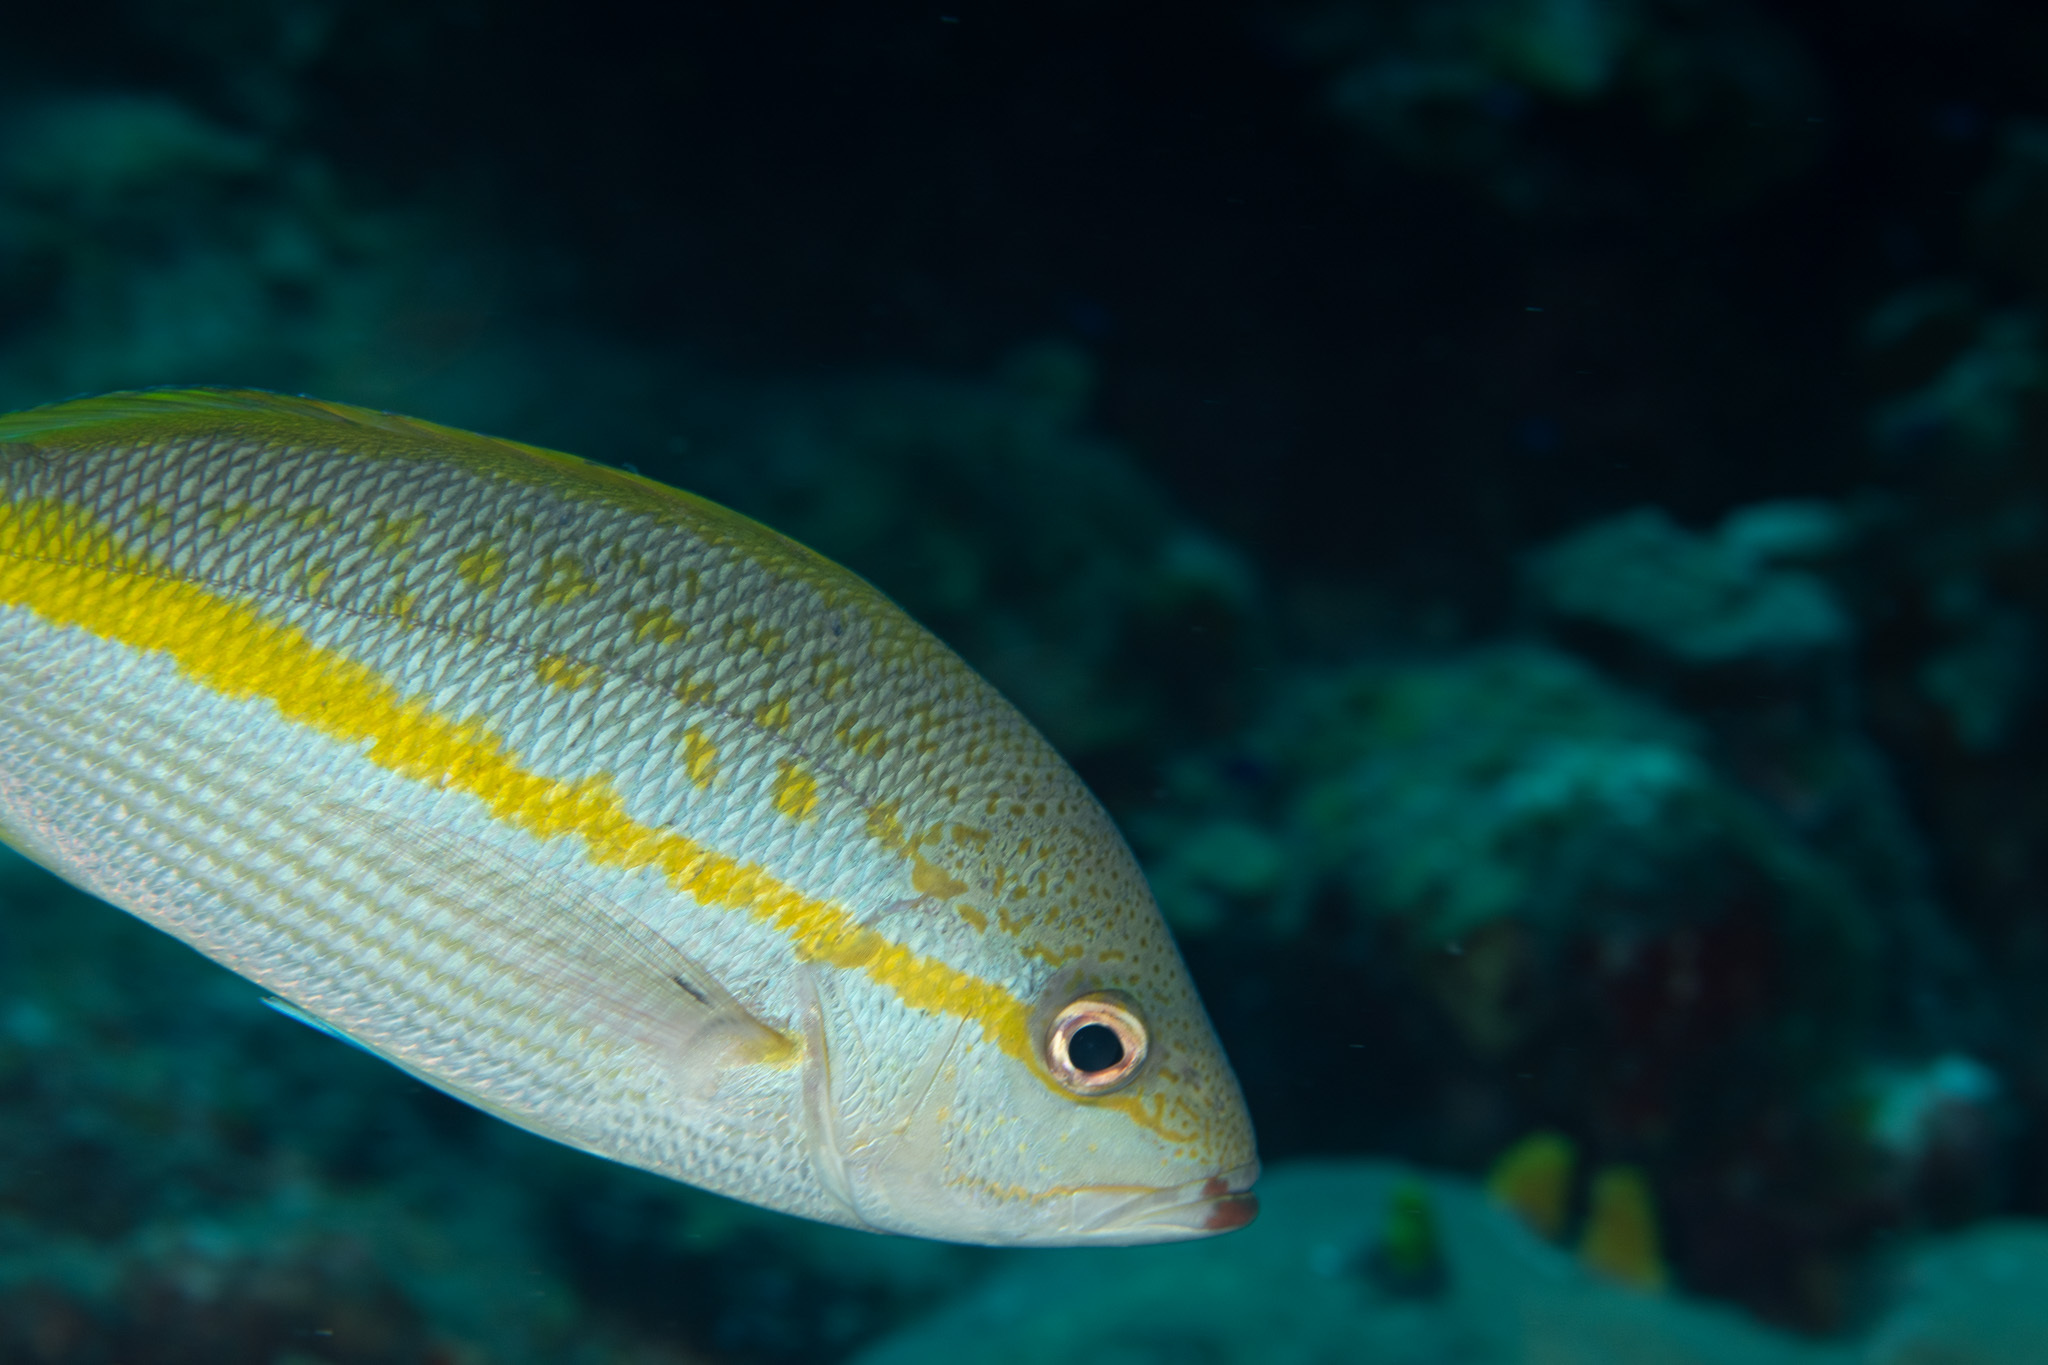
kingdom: Animalia
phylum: Chordata
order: Perciformes
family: Lutjanidae
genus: Ocyurus
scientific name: Ocyurus chrysurus
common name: Yellowtail snapper
